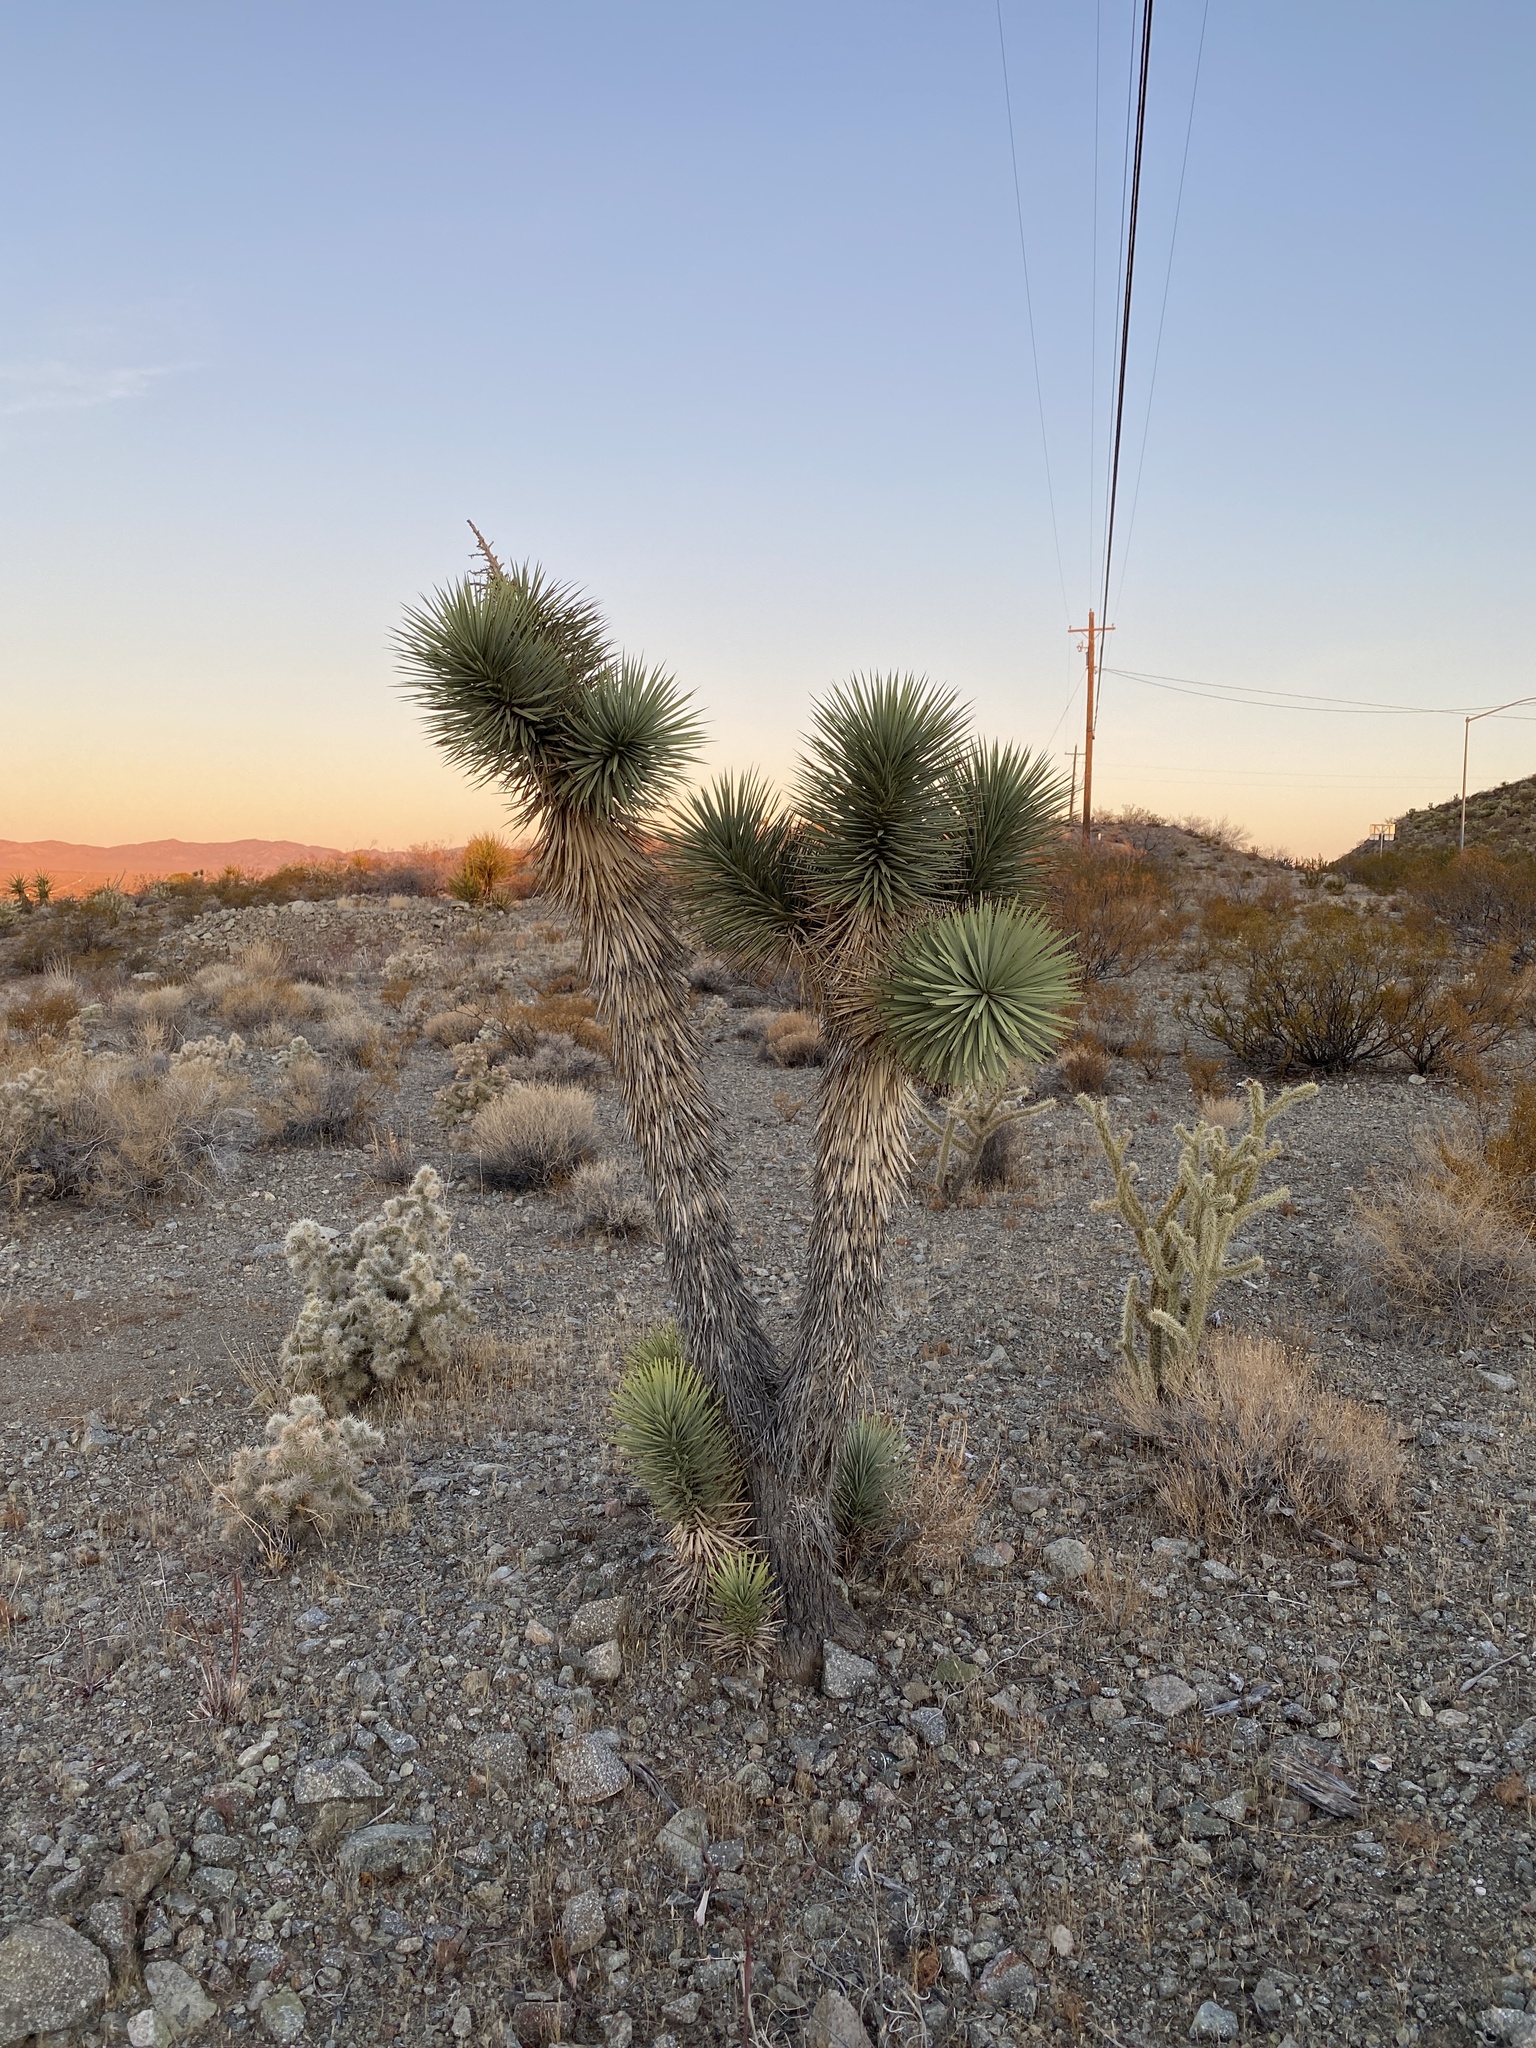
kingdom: Plantae
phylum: Tracheophyta
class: Liliopsida
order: Asparagales
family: Asparagaceae
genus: Yucca
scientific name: Yucca brevifolia
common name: Joshua tree
